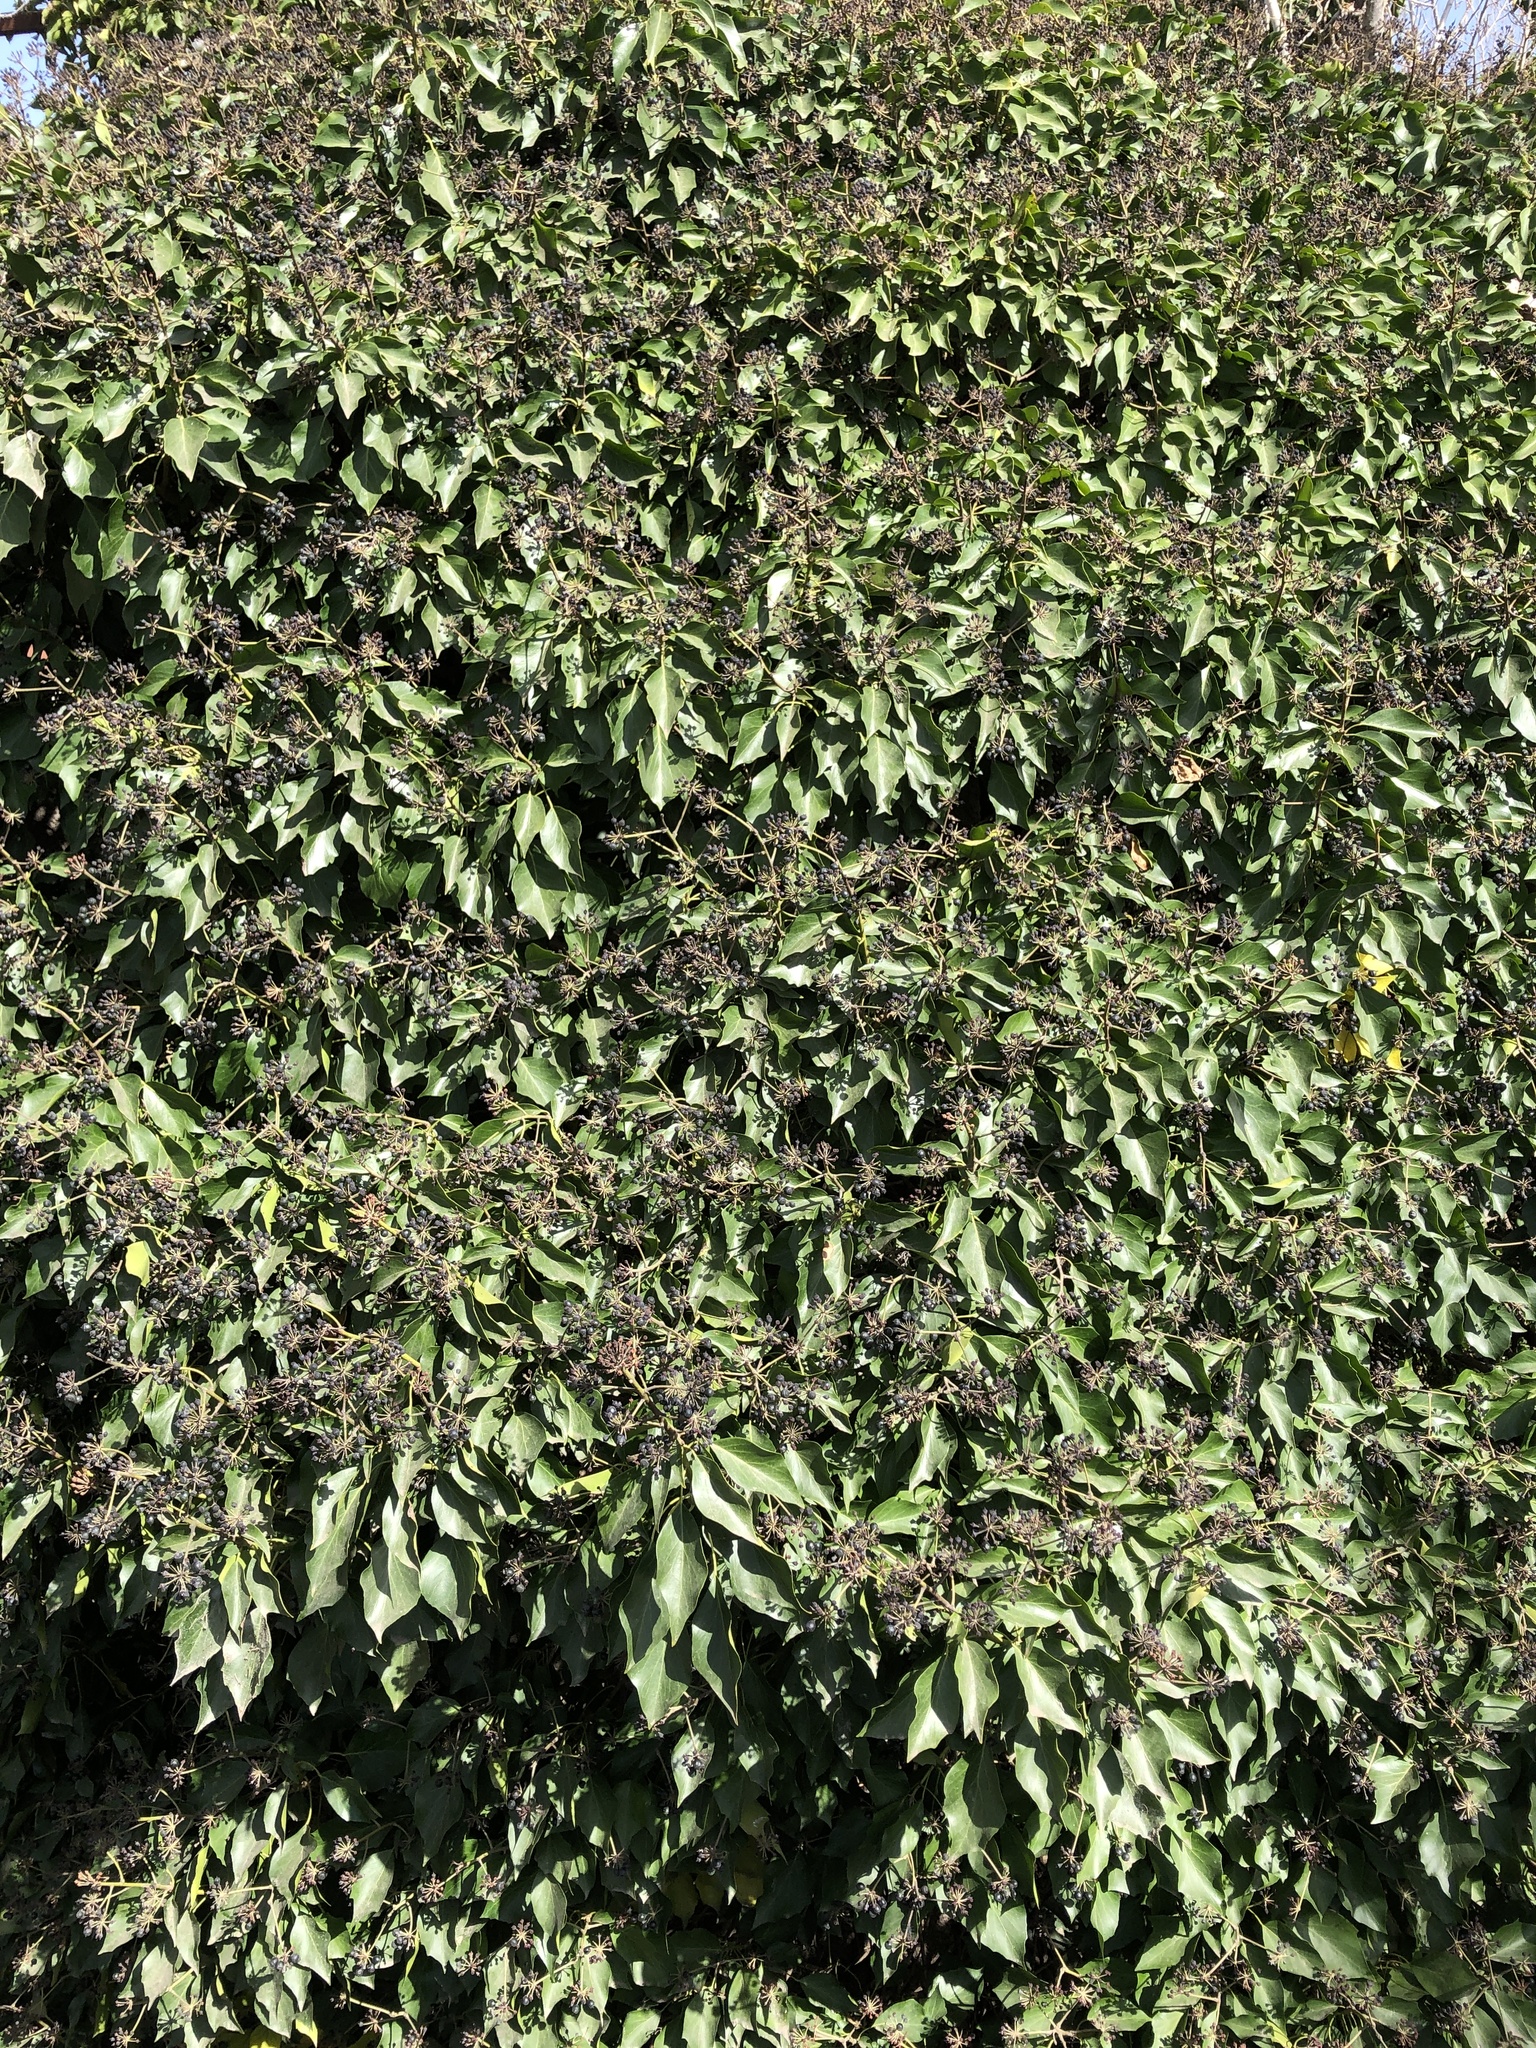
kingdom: Plantae
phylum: Tracheophyta
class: Magnoliopsida
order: Apiales
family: Araliaceae
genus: Hedera
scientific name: Hedera helix
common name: Ivy
